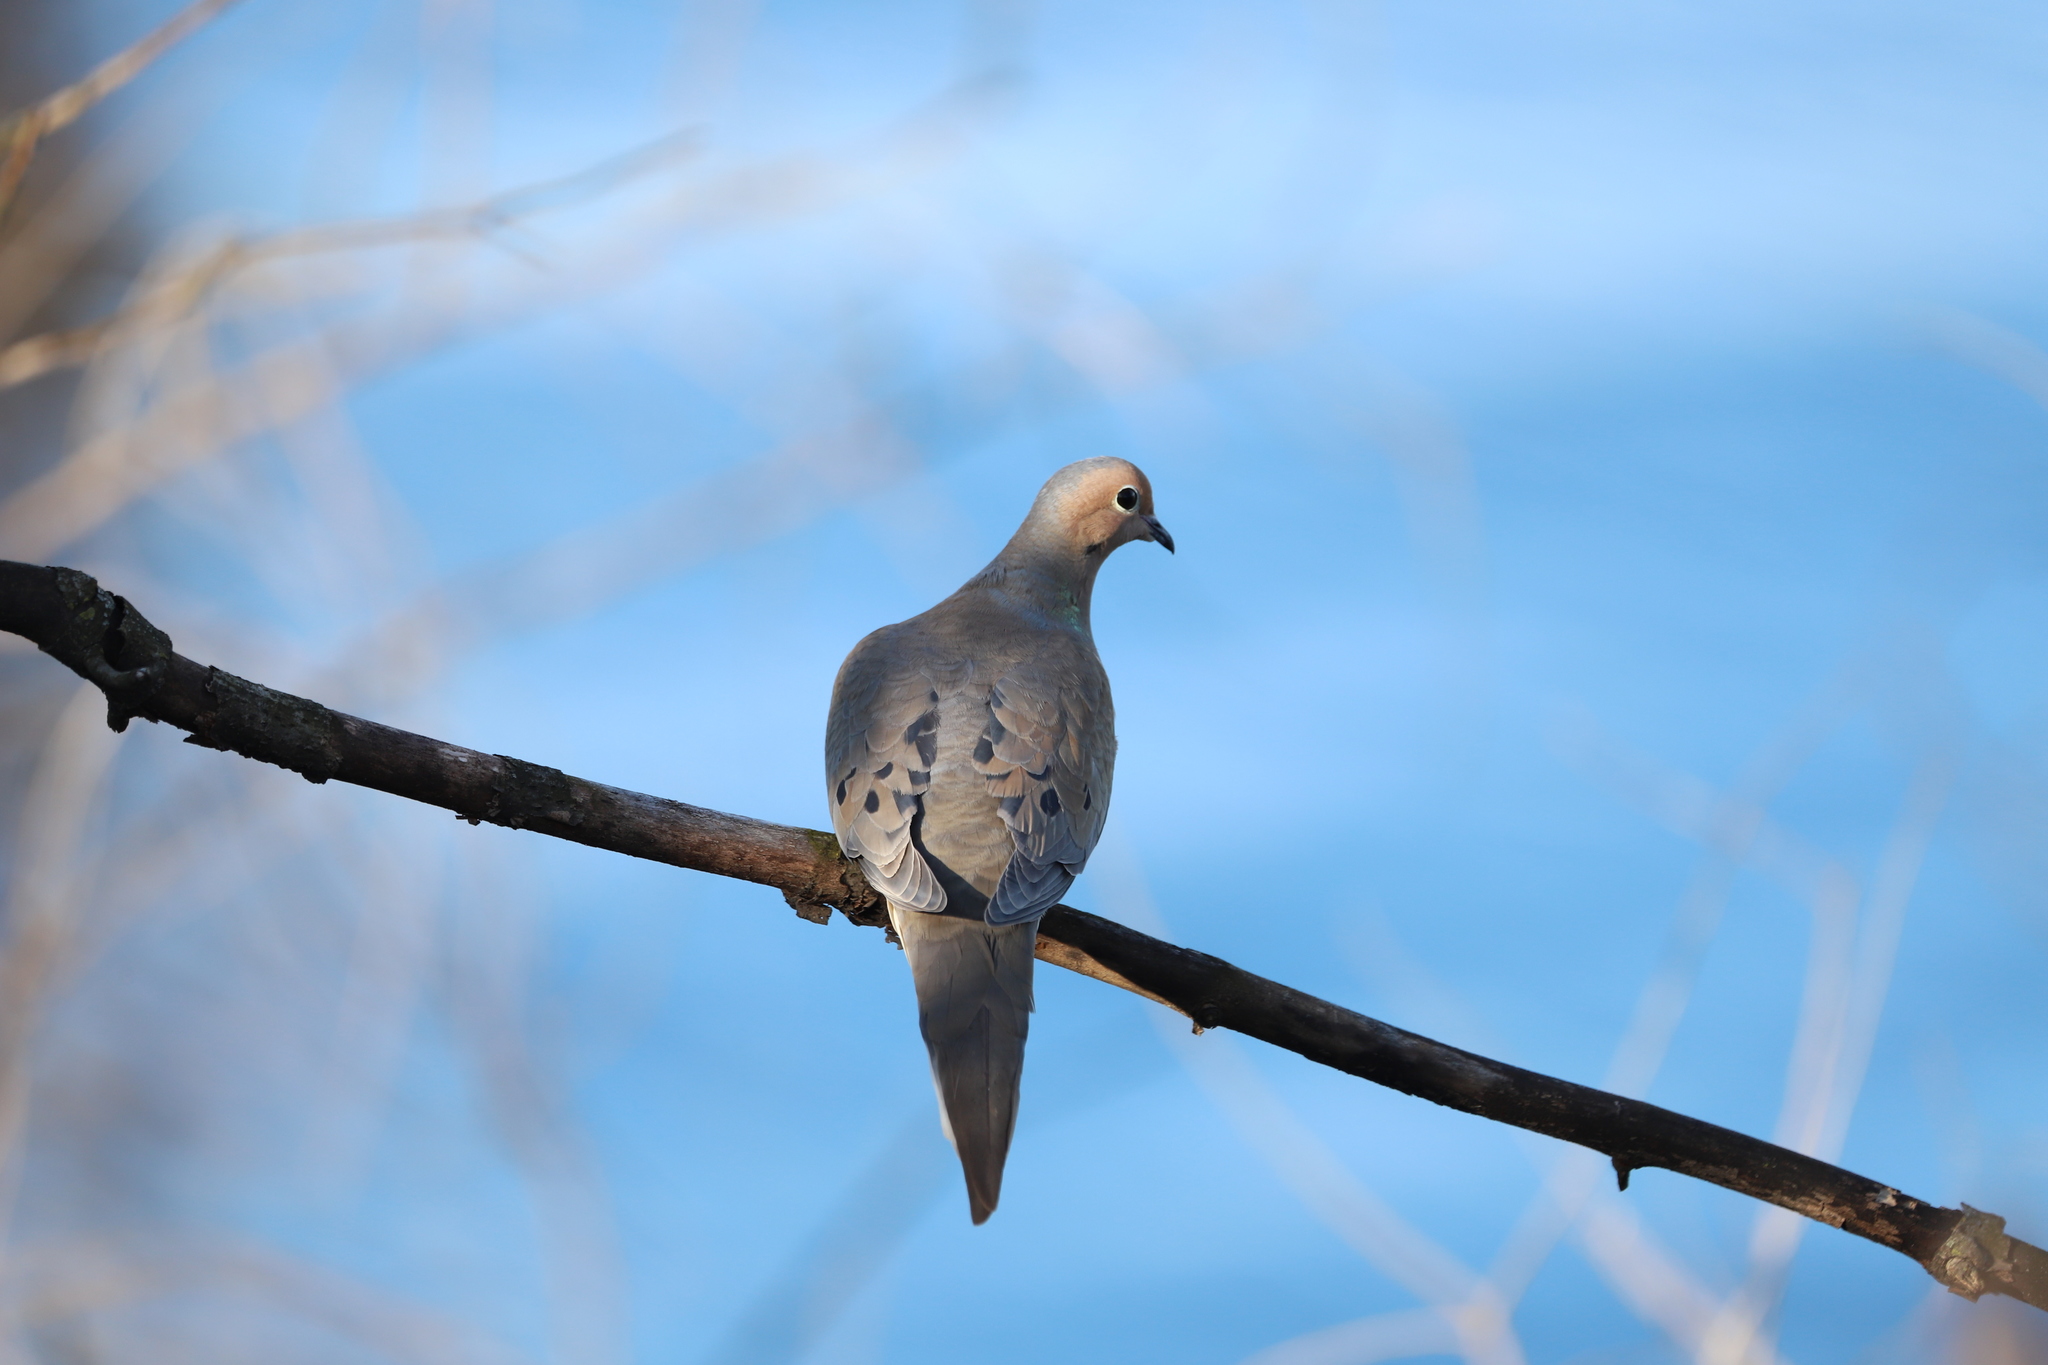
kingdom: Animalia
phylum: Chordata
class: Aves
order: Columbiformes
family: Columbidae
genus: Zenaida
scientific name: Zenaida macroura
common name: Mourning dove
